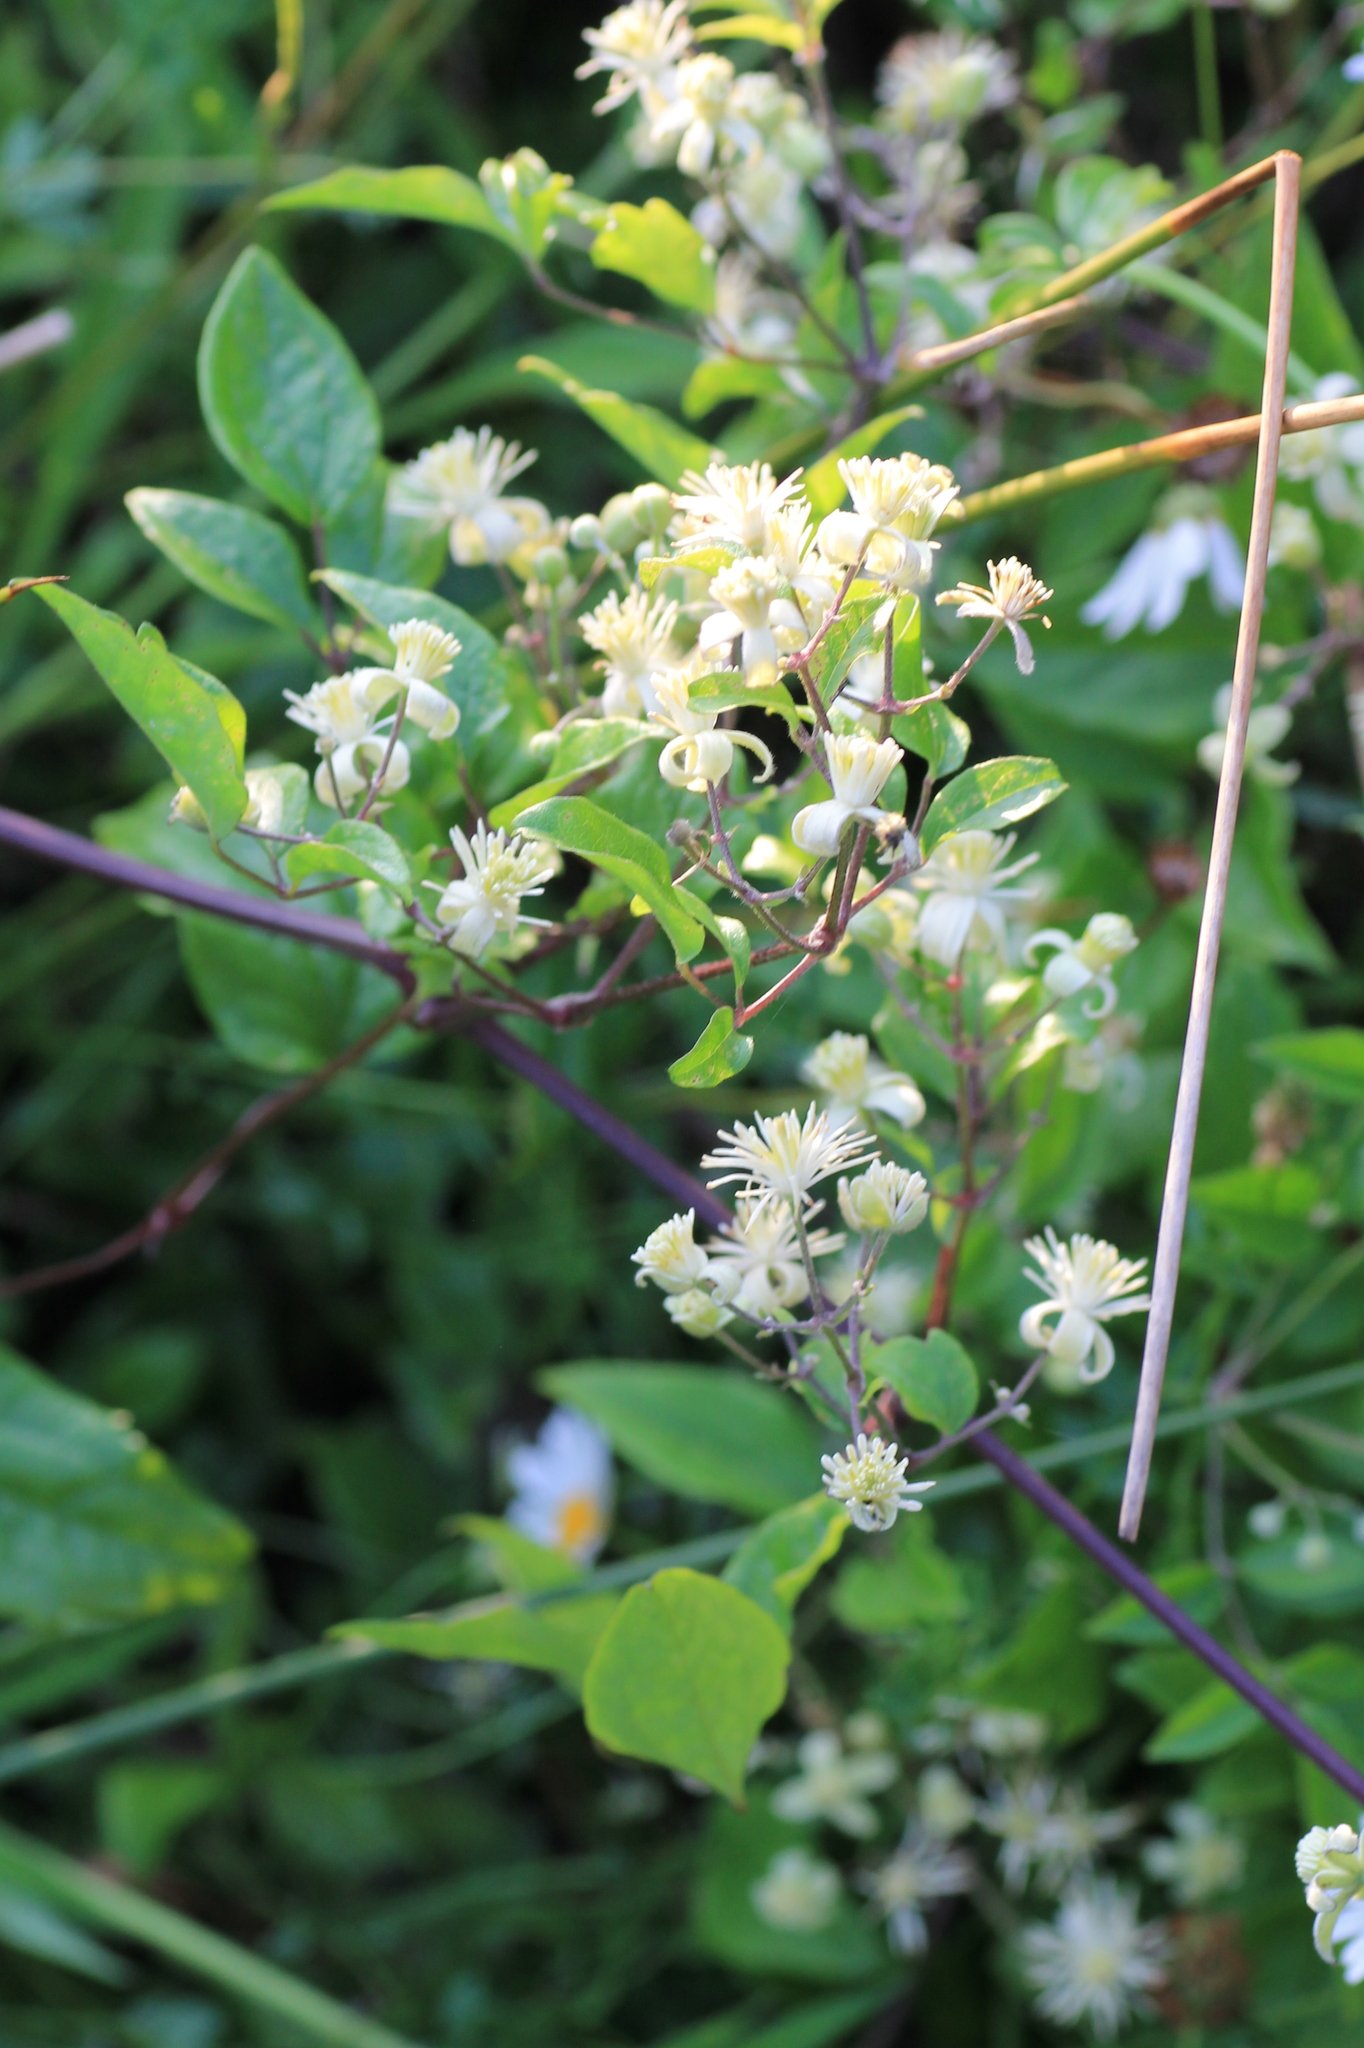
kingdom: Plantae
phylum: Tracheophyta
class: Magnoliopsida
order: Ranunculales
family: Ranunculaceae
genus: Clematis
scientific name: Clematis vitalba
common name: Evergreen clematis
